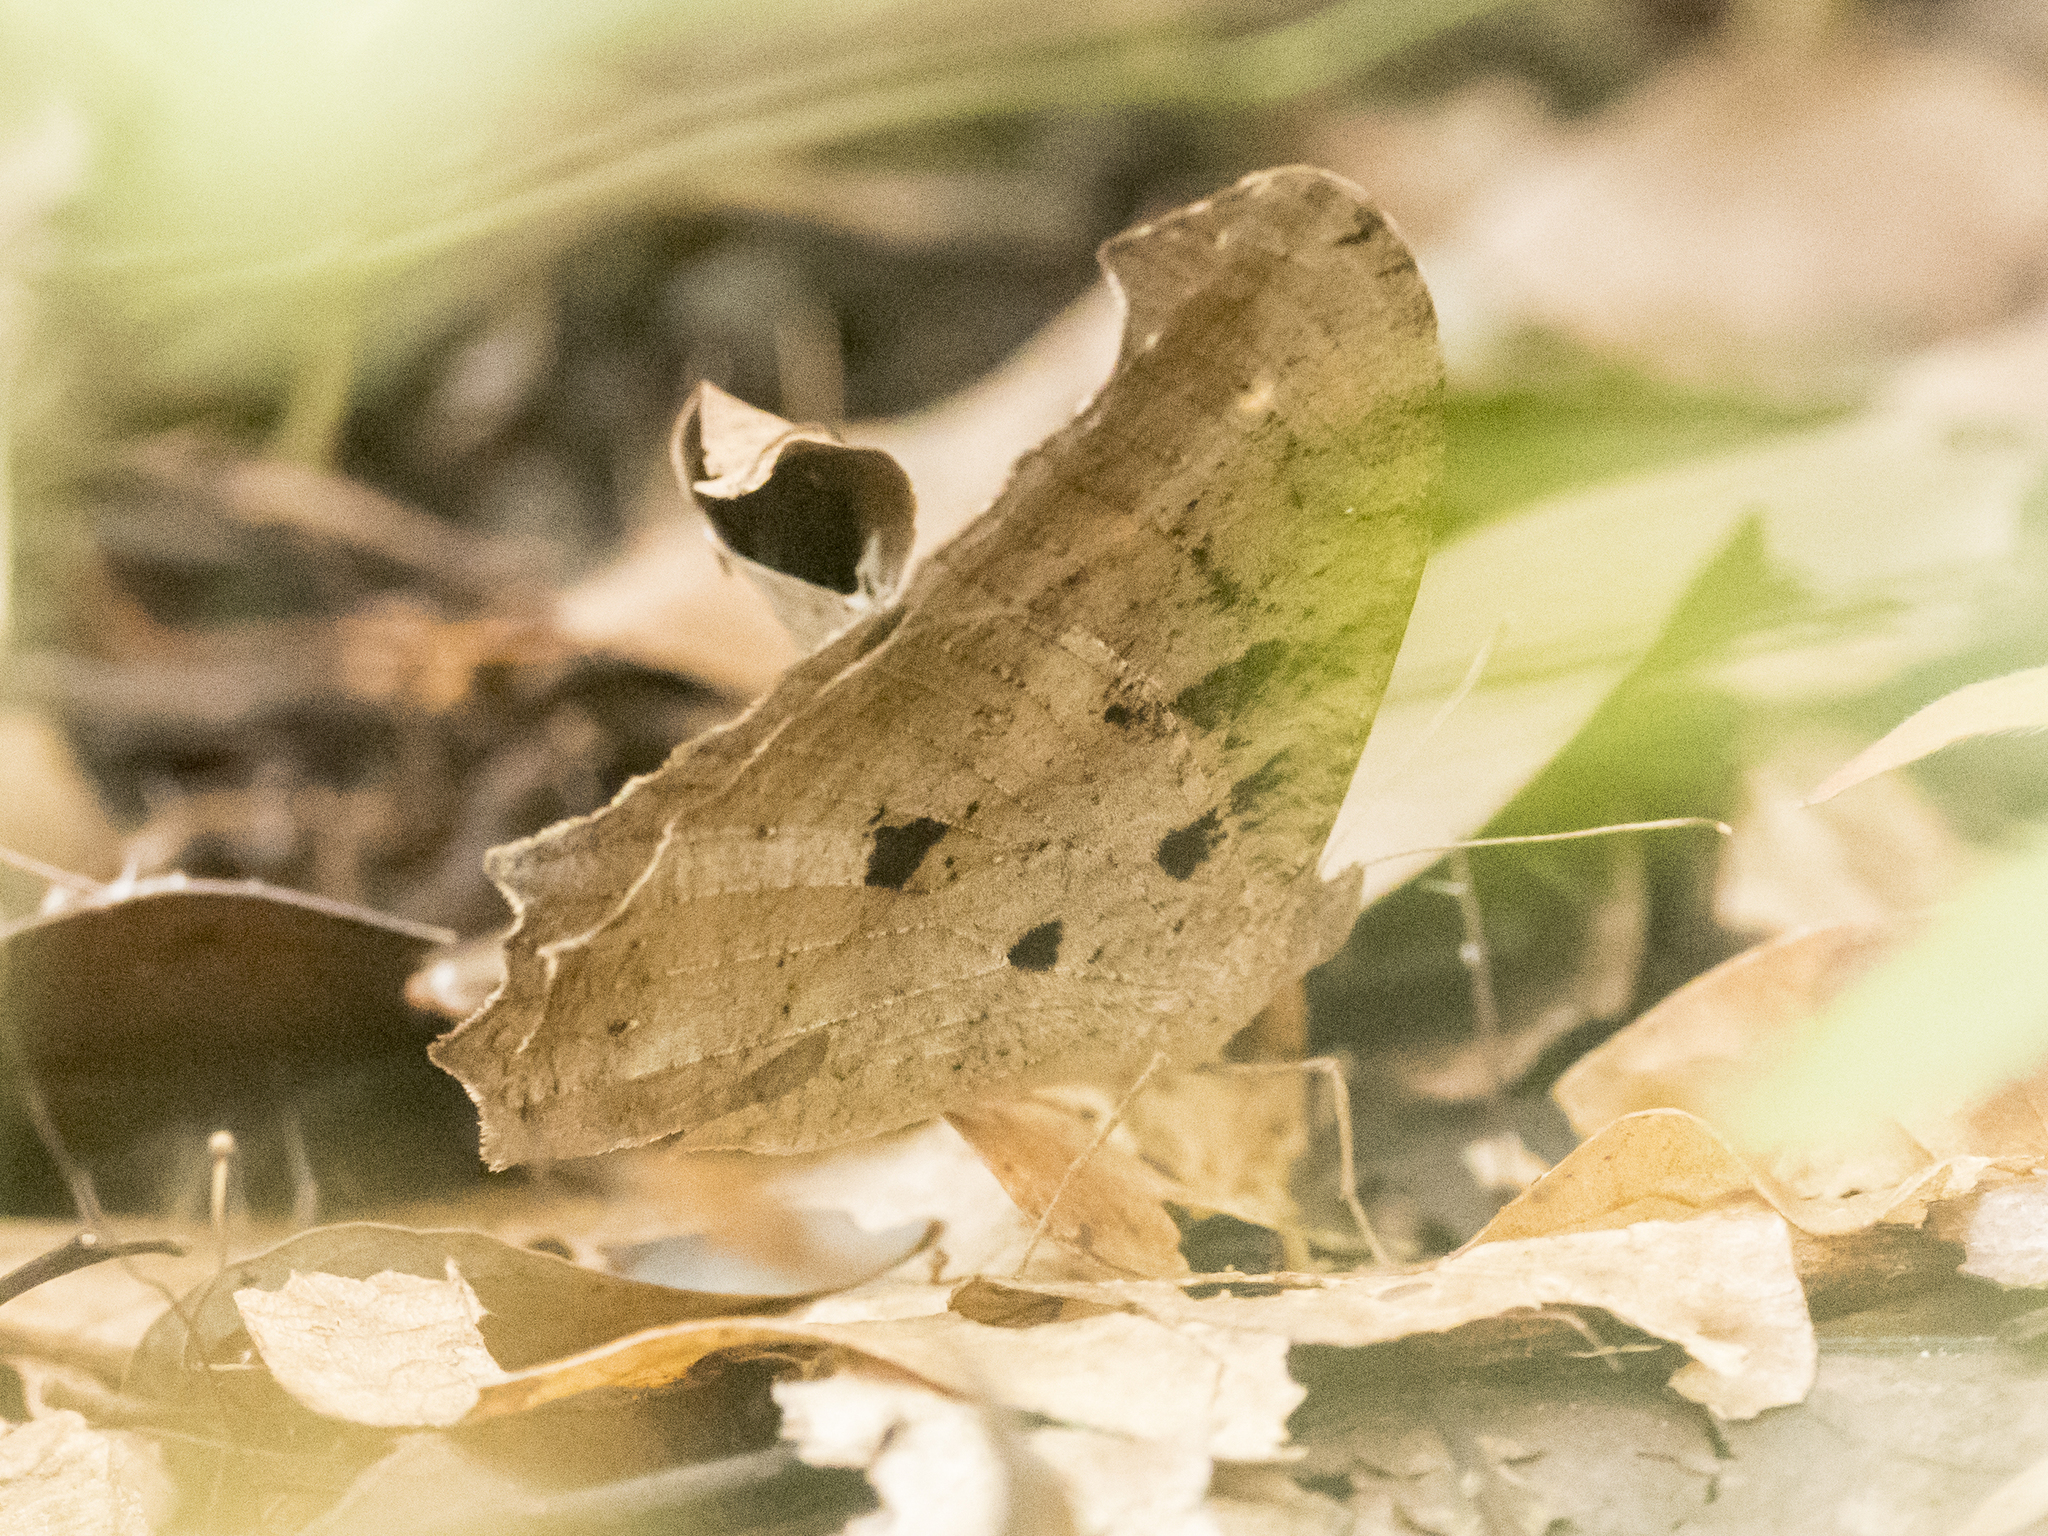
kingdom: Animalia
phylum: Arthropoda
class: Insecta
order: Lepidoptera
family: Nymphalidae
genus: Melanitis
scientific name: Melanitis leda
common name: Twilight brown
